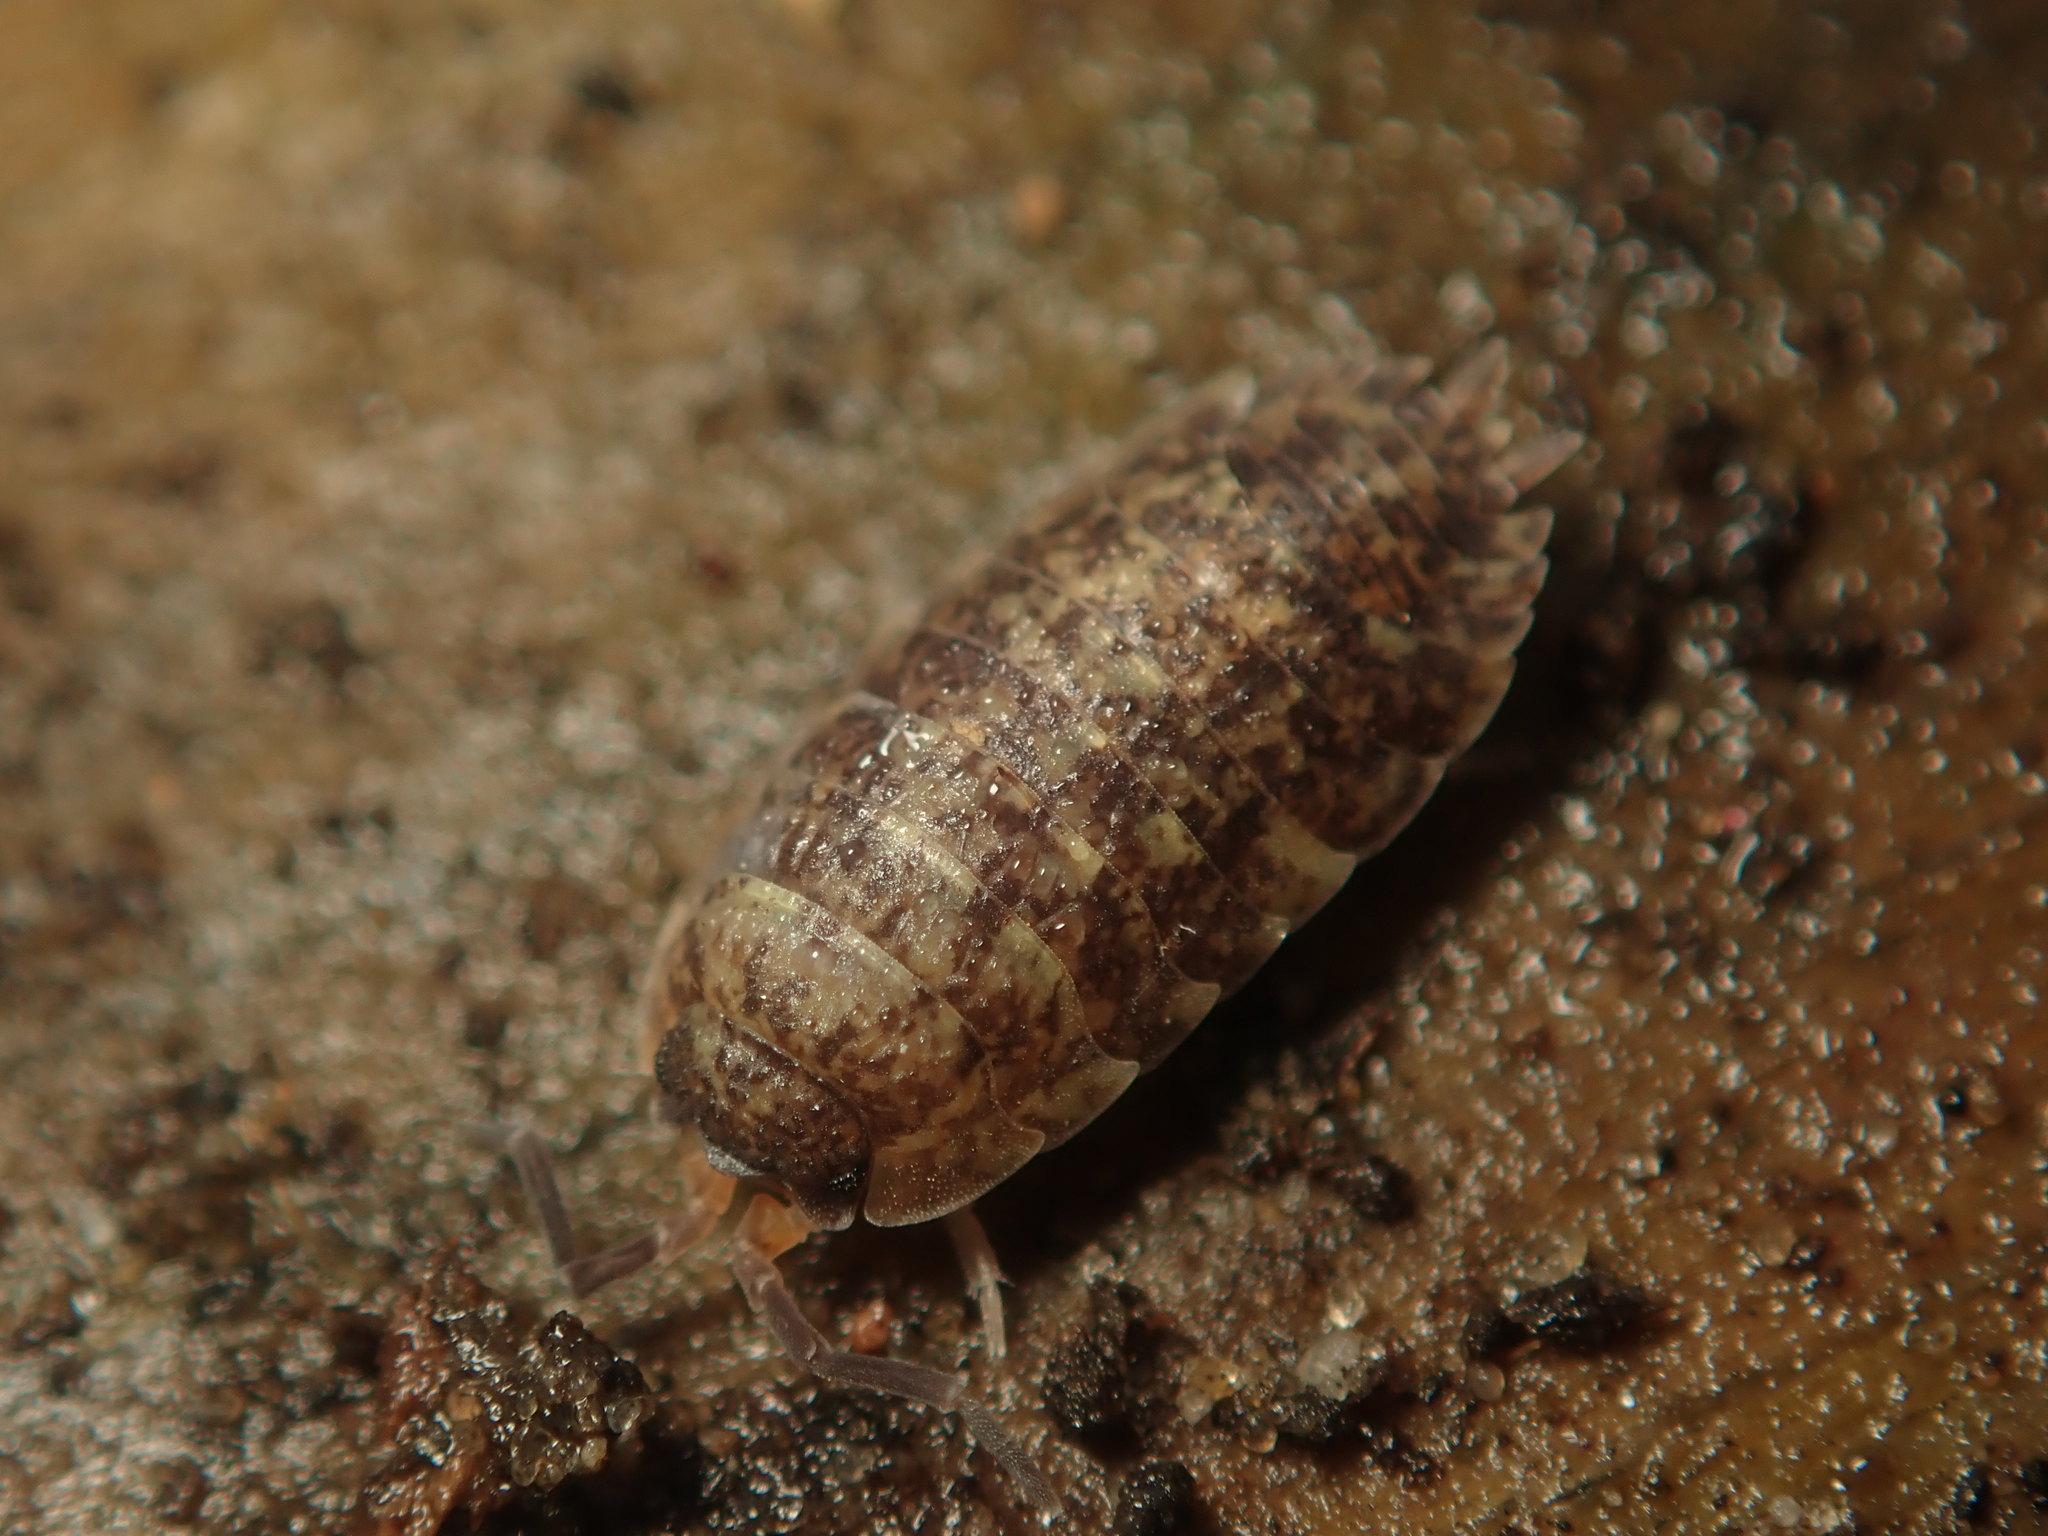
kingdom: Animalia
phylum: Arthropoda
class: Malacostraca
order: Isopoda
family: Porcellionidae
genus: Porcellio
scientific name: Porcellio scaber
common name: Common rough woodlouse
